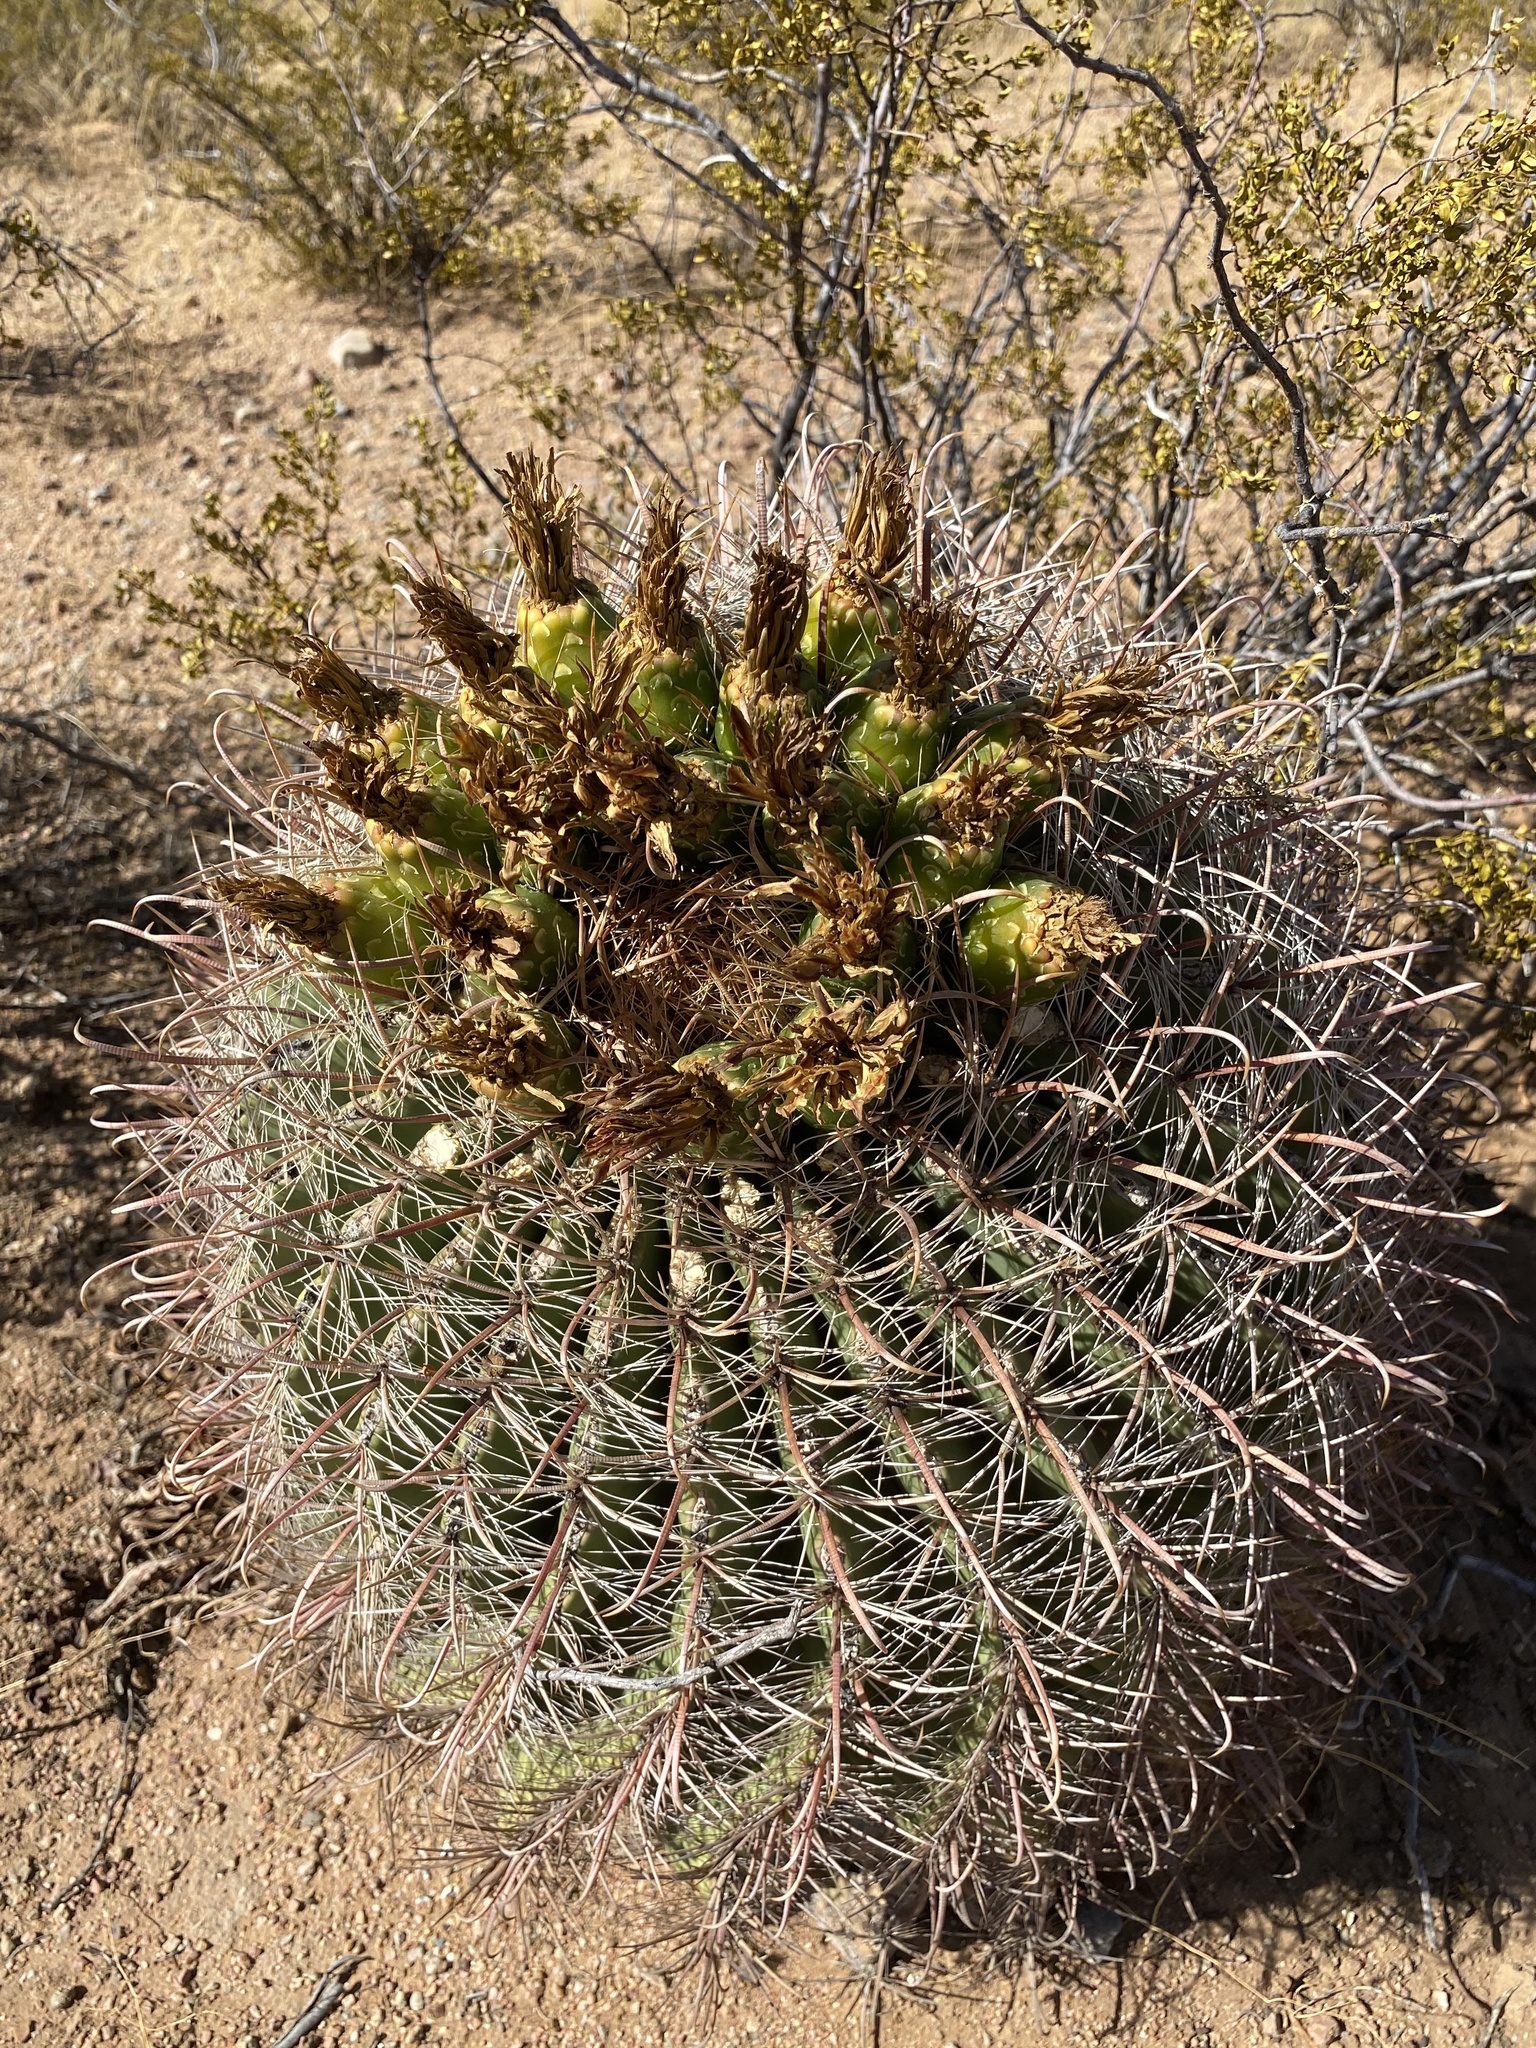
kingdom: Plantae
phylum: Tracheophyta
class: Magnoliopsida
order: Caryophyllales
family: Cactaceae
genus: Ferocactus
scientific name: Ferocactus wislizeni
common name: Candy barrel cactus
